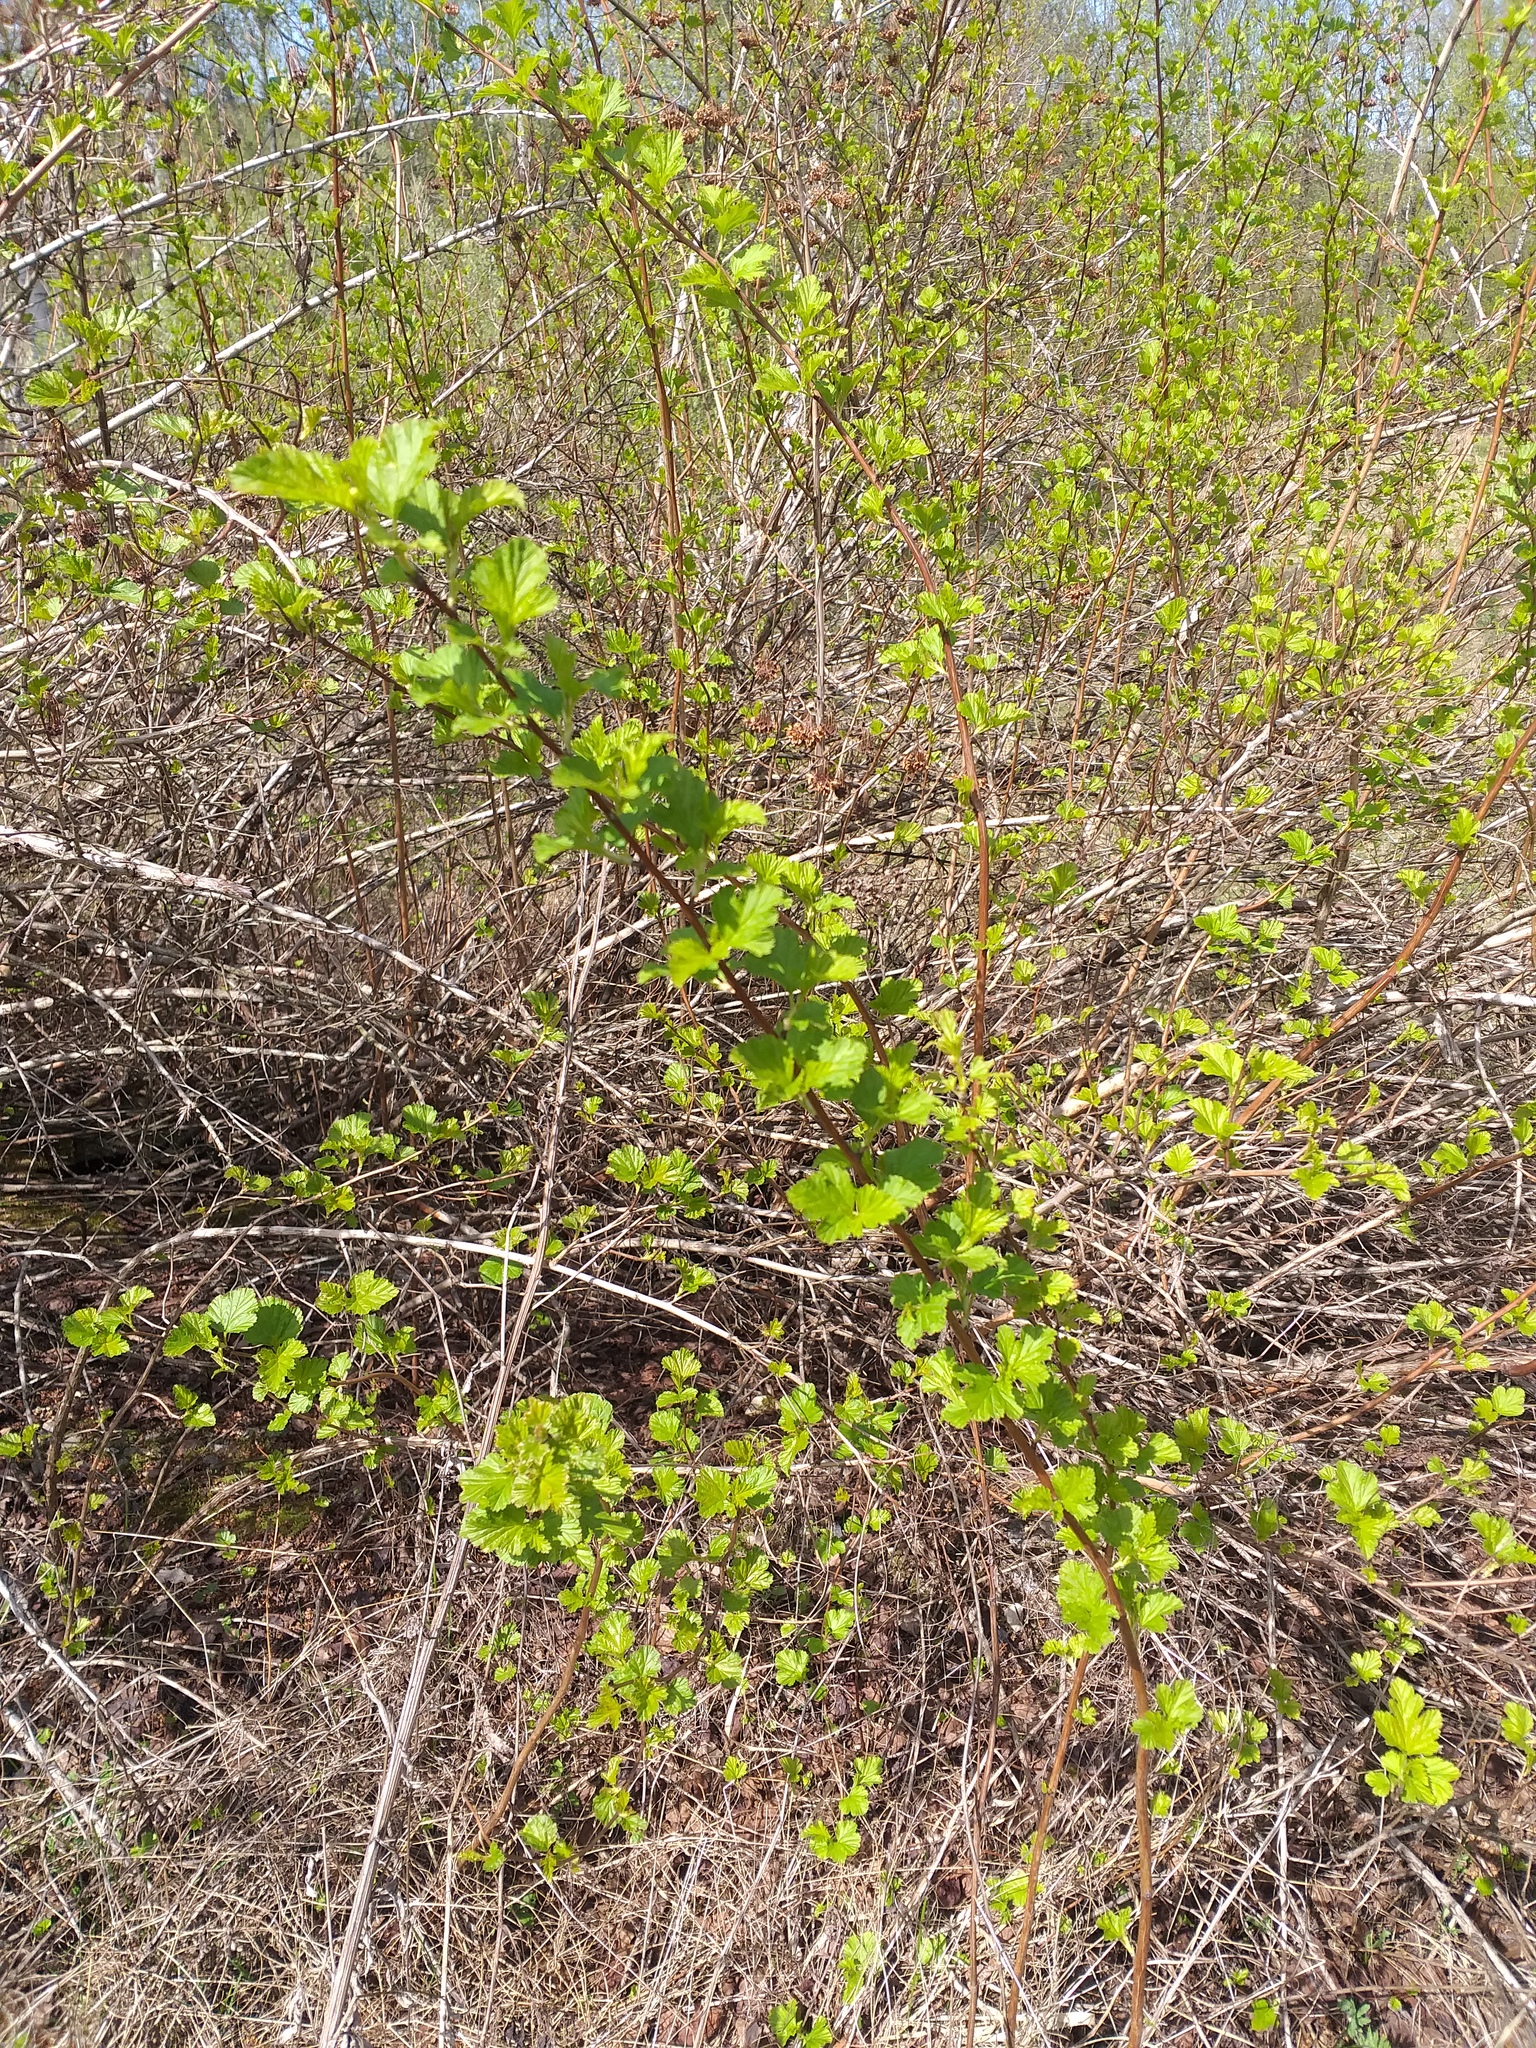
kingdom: Plantae
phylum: Tracheophyta
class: Magnoliopsida
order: Rosales
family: Rosaceae
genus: Physocarpus
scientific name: Physocarpus opulifolius
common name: Ninebark
